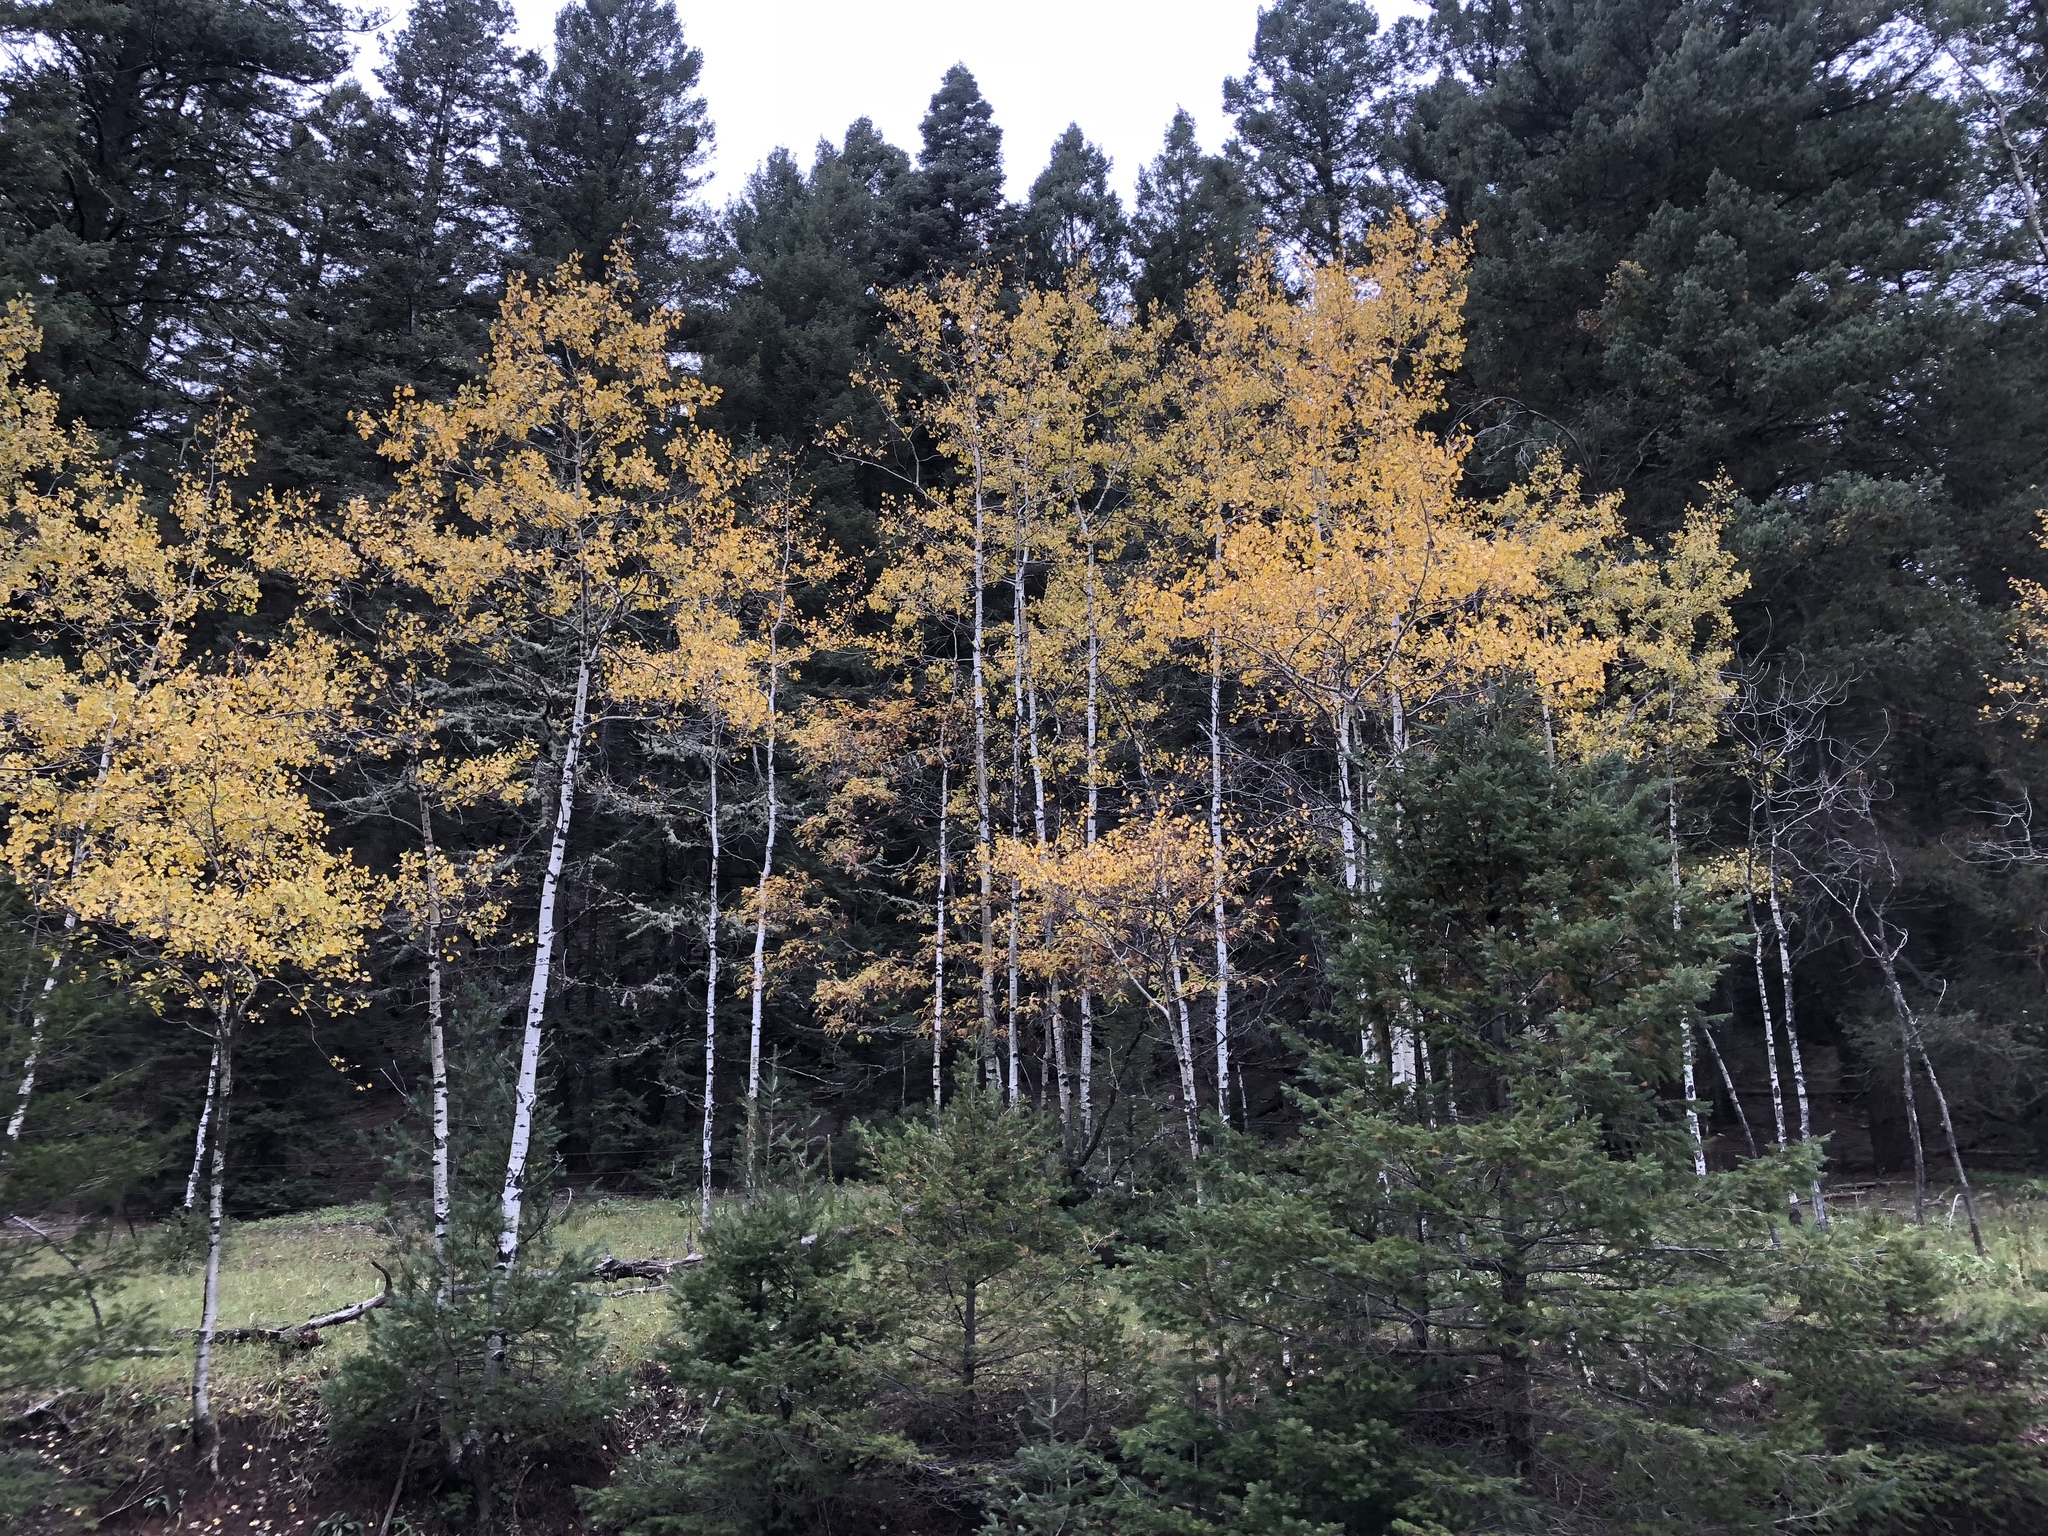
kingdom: Plantae
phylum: Tracheophyta
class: Magnoliopsida
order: Malpighiales
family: Salicaceae
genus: Populus
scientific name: Populus tremuloides
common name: Quaking aspen
